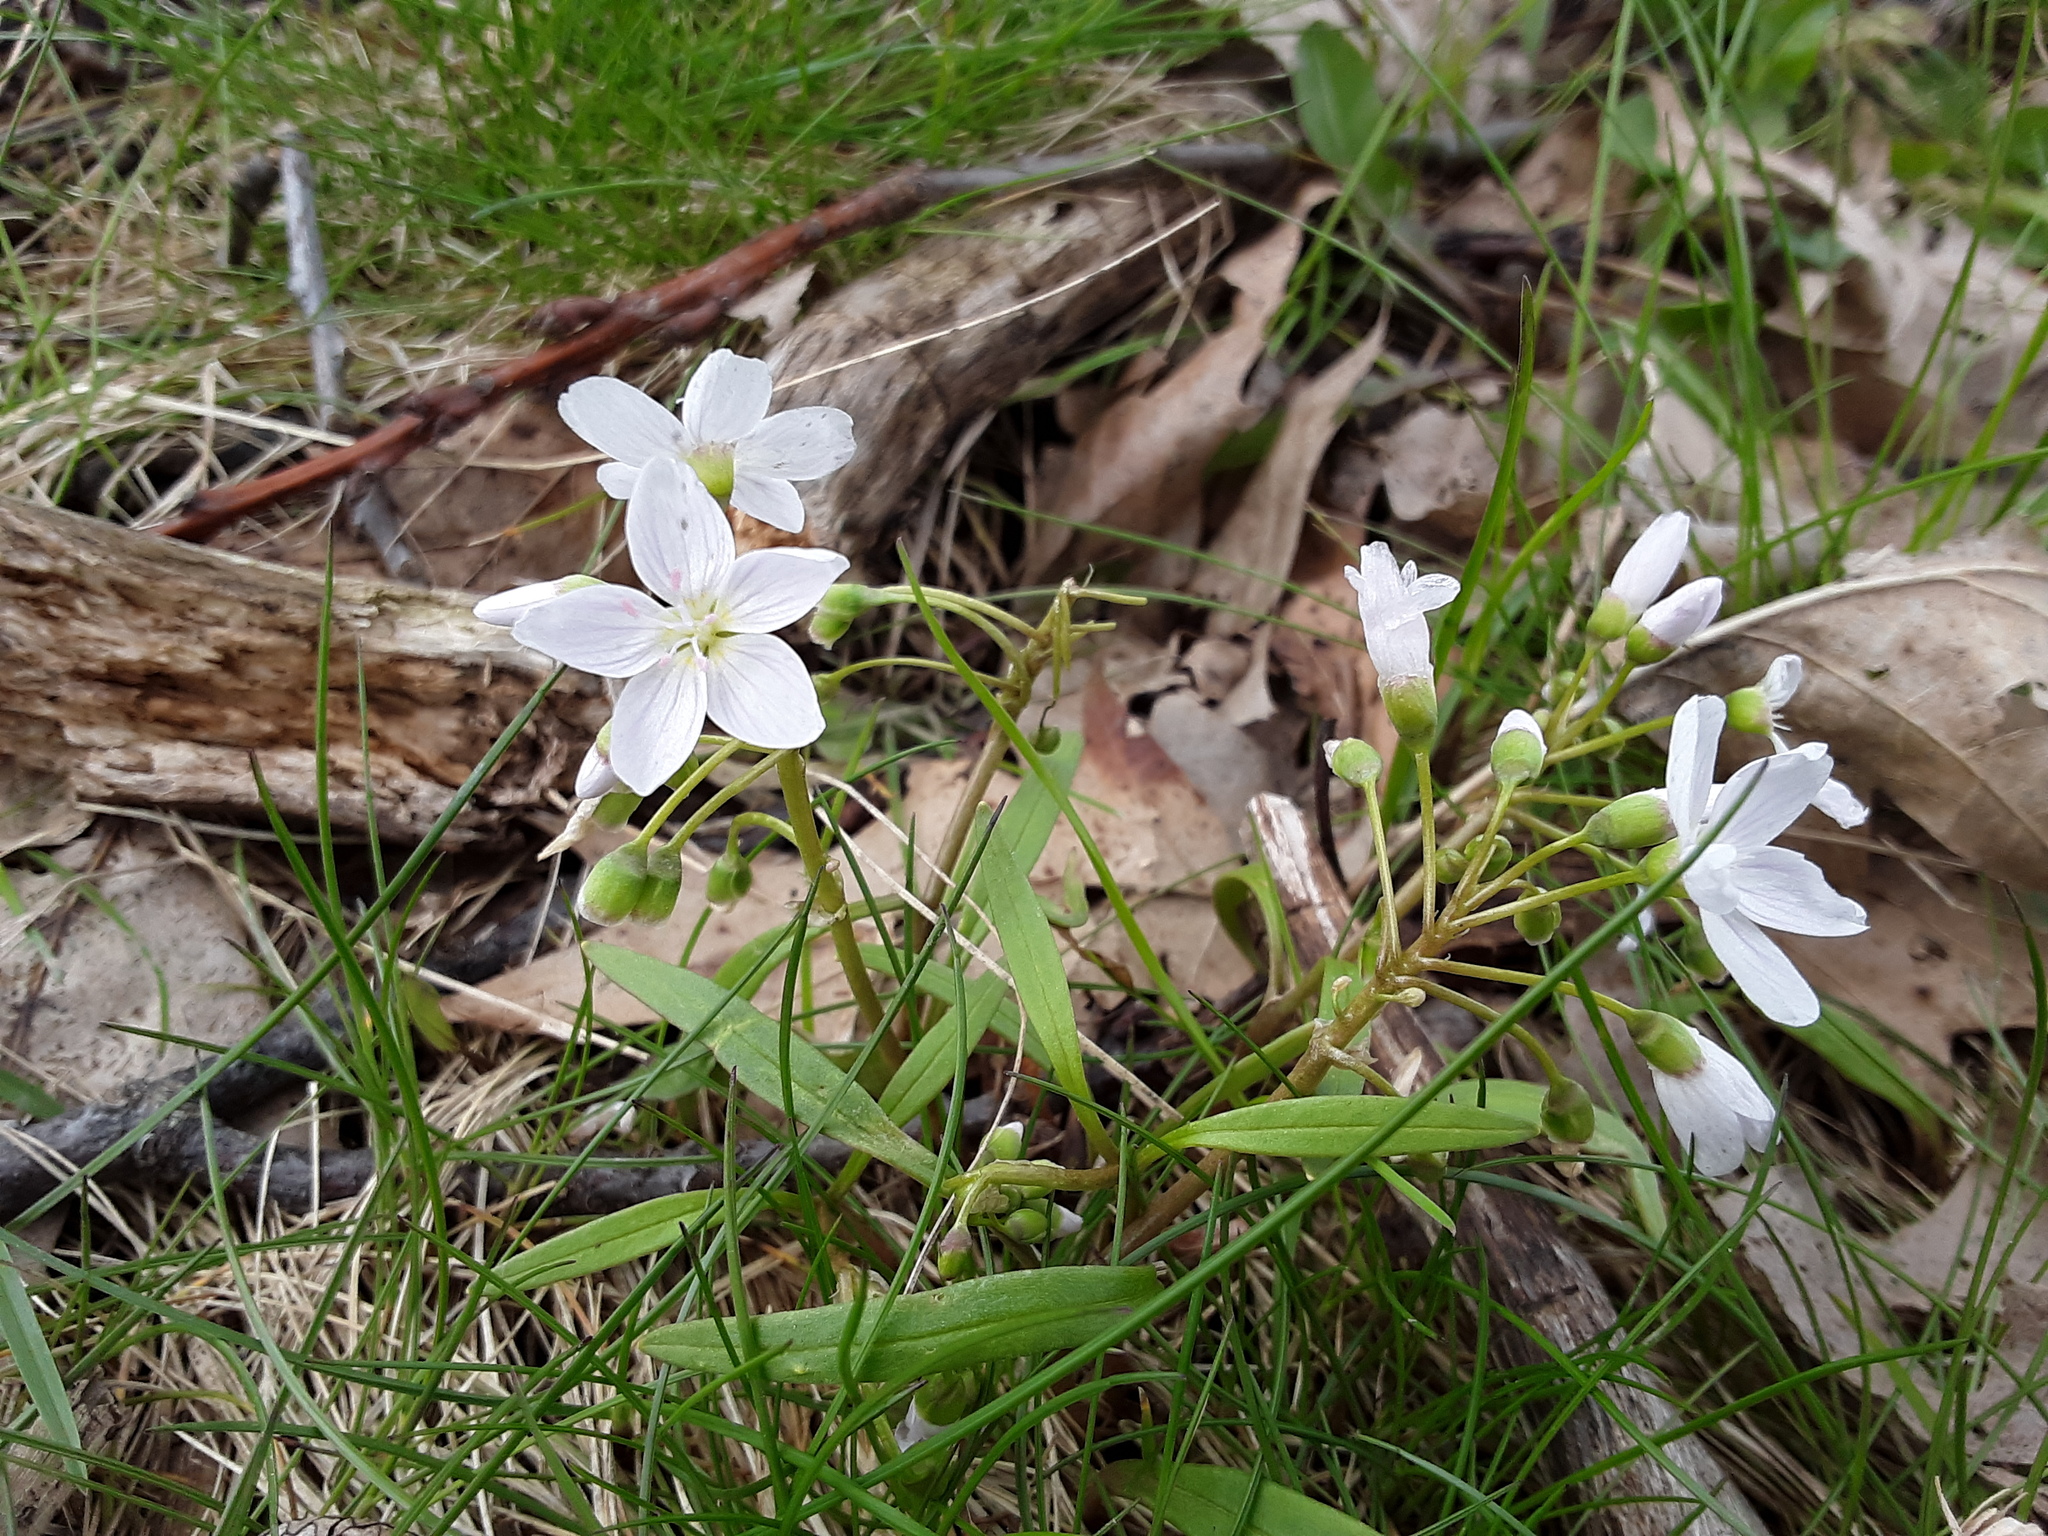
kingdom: Plantae
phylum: Tracheophyta
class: Magnoliopsida
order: Caryophyllales
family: Montiaceae
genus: Claytonia
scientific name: Claytonia virginica
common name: Virginia springbeauty
